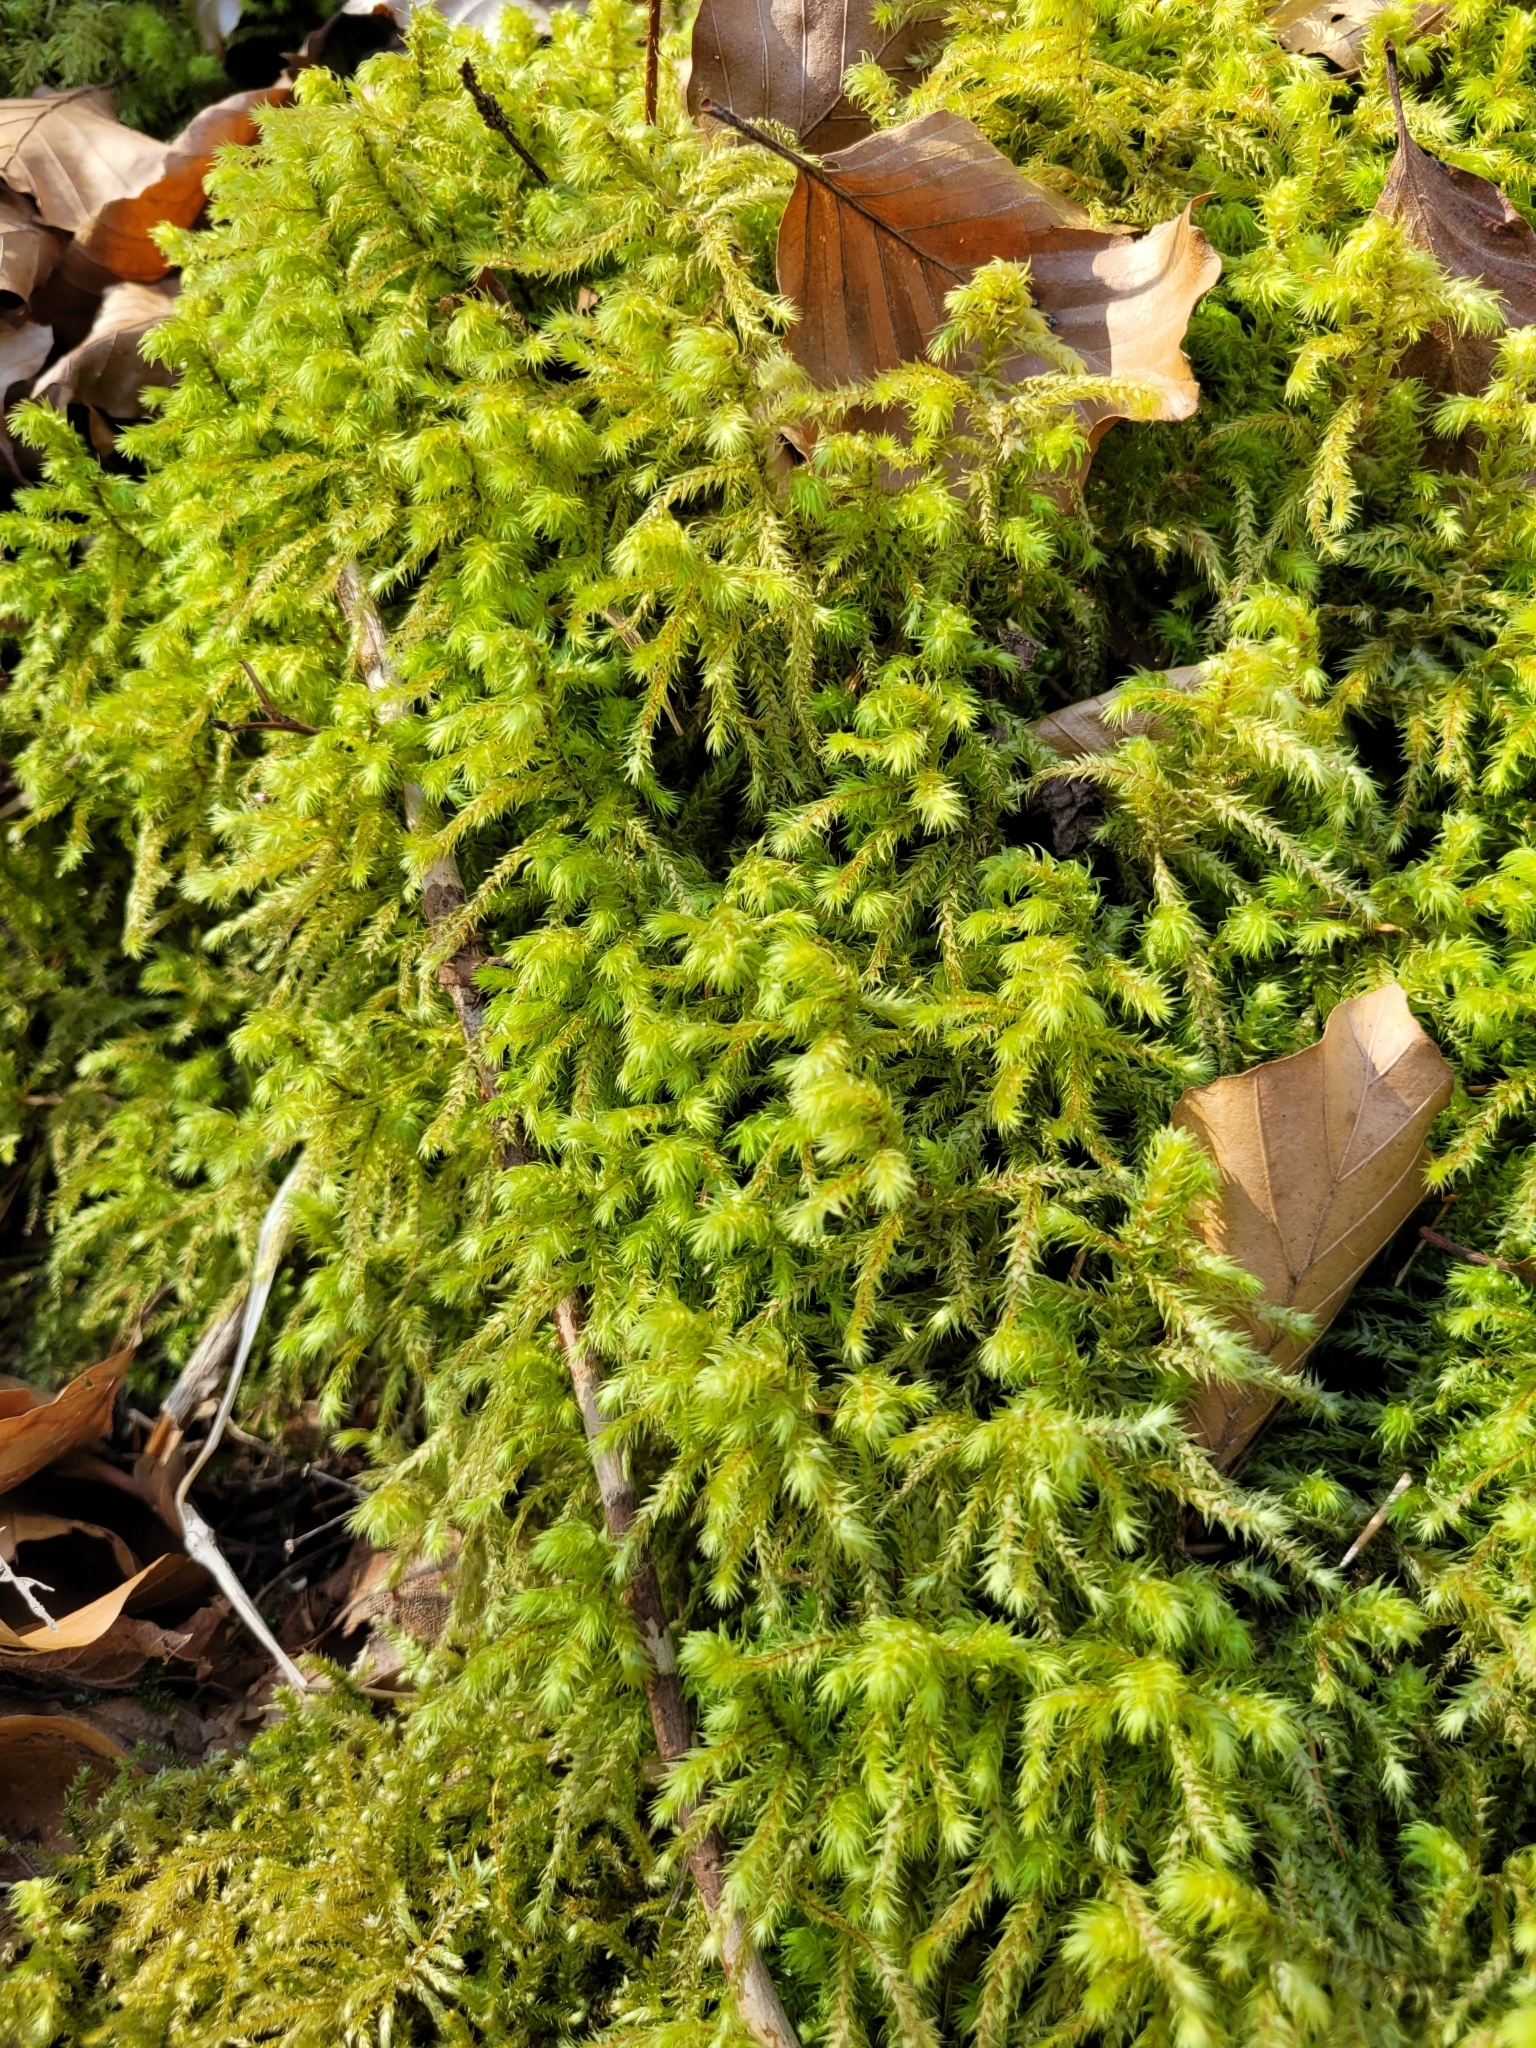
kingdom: Plantae
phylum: Bryophyta
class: Bryopsida
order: Hypnales
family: Hylocomiaceae
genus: Hylocomiadelphus
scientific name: Hylocomiadelphus triquetrus
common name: Rough goose neck moss
